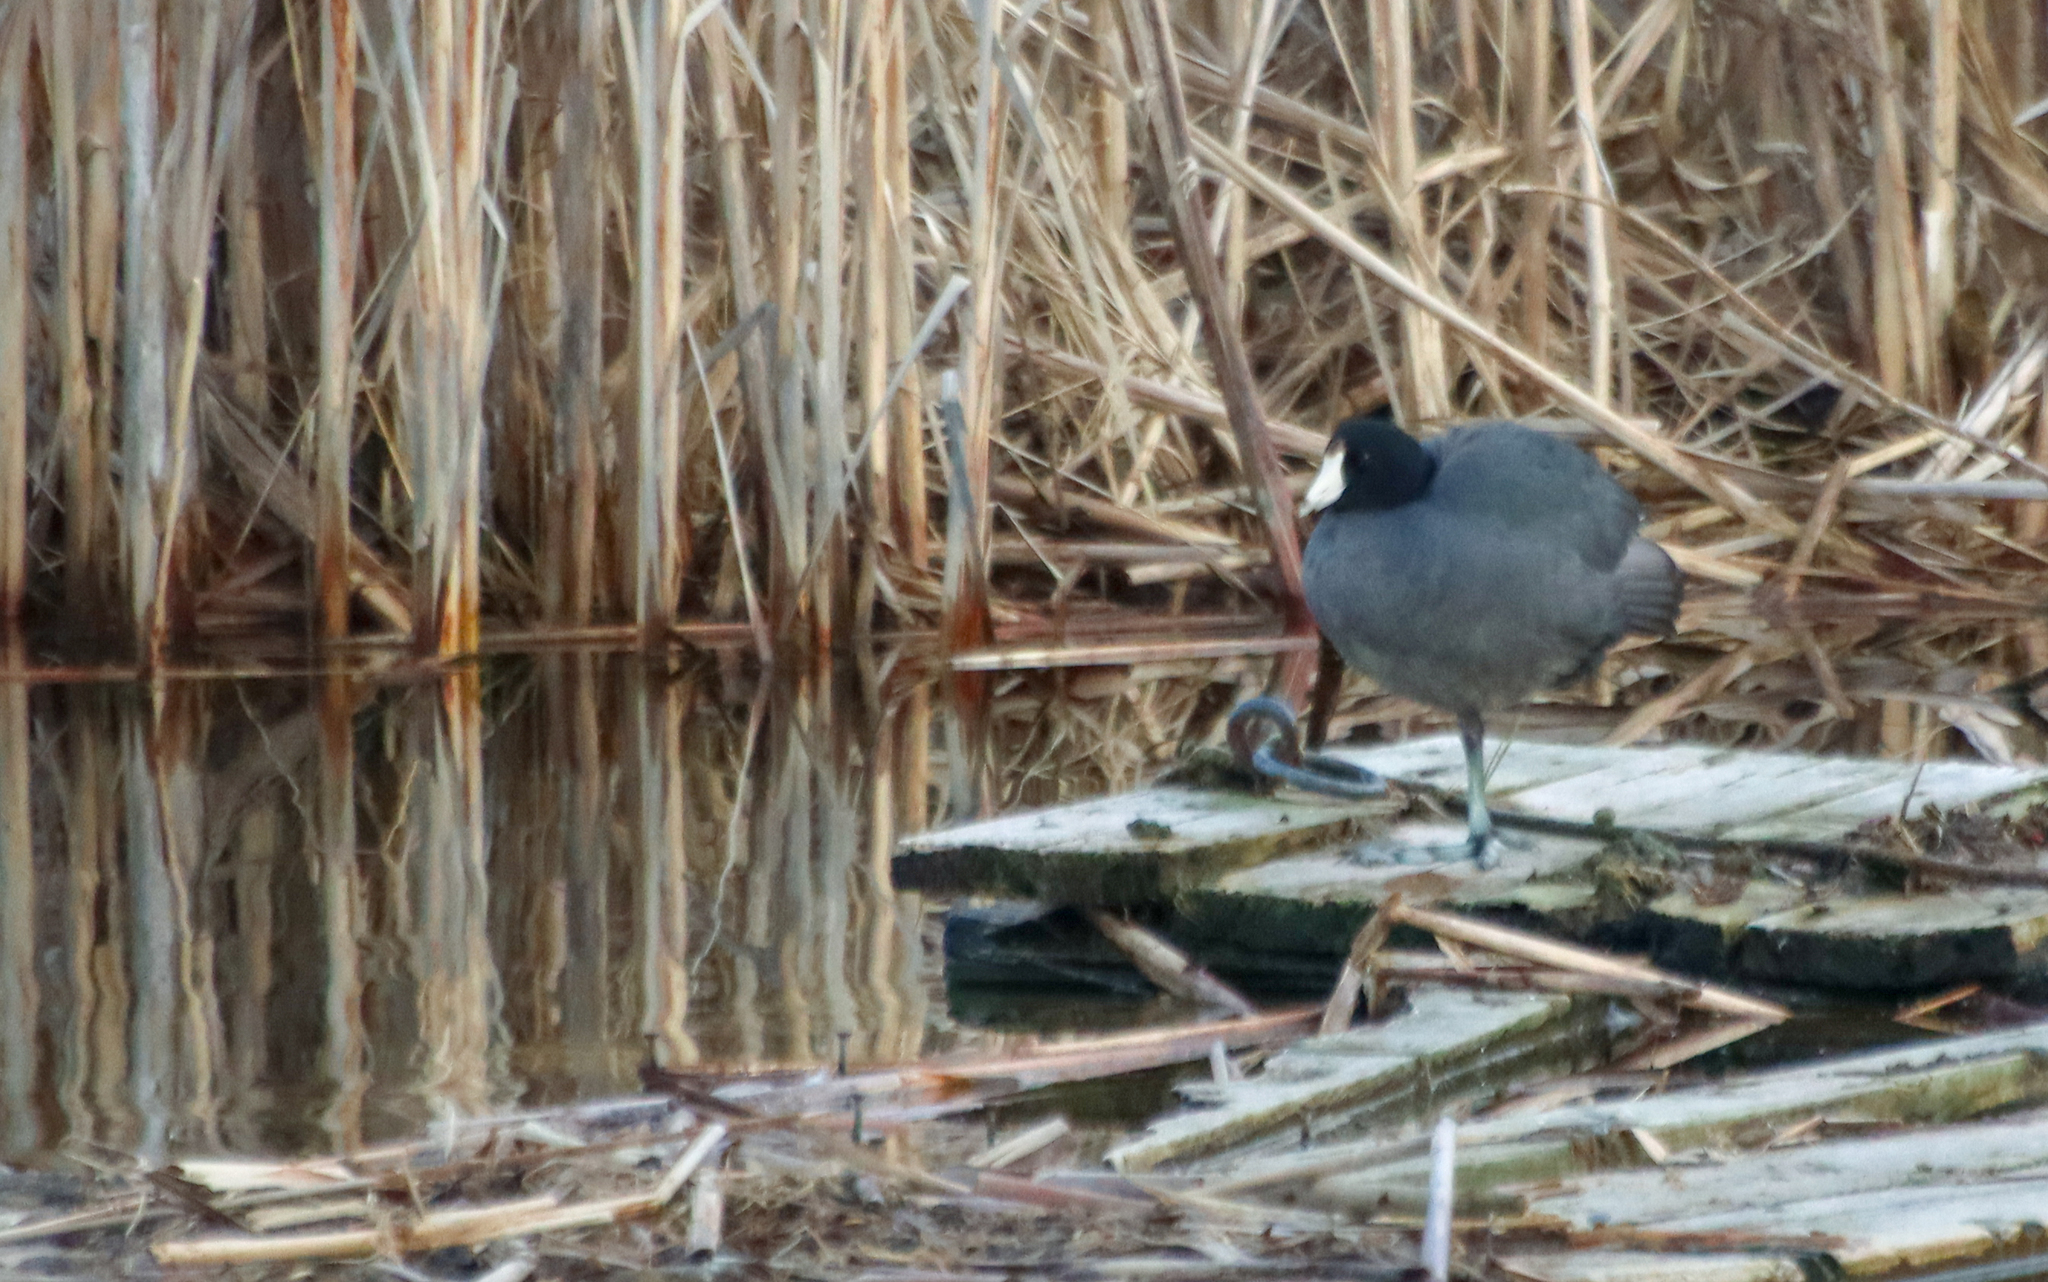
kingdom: Animalia
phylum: Chordata
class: Aves
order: Gruiformes
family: Rallidae
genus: Fulica
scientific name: Fulica americana
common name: American coot
